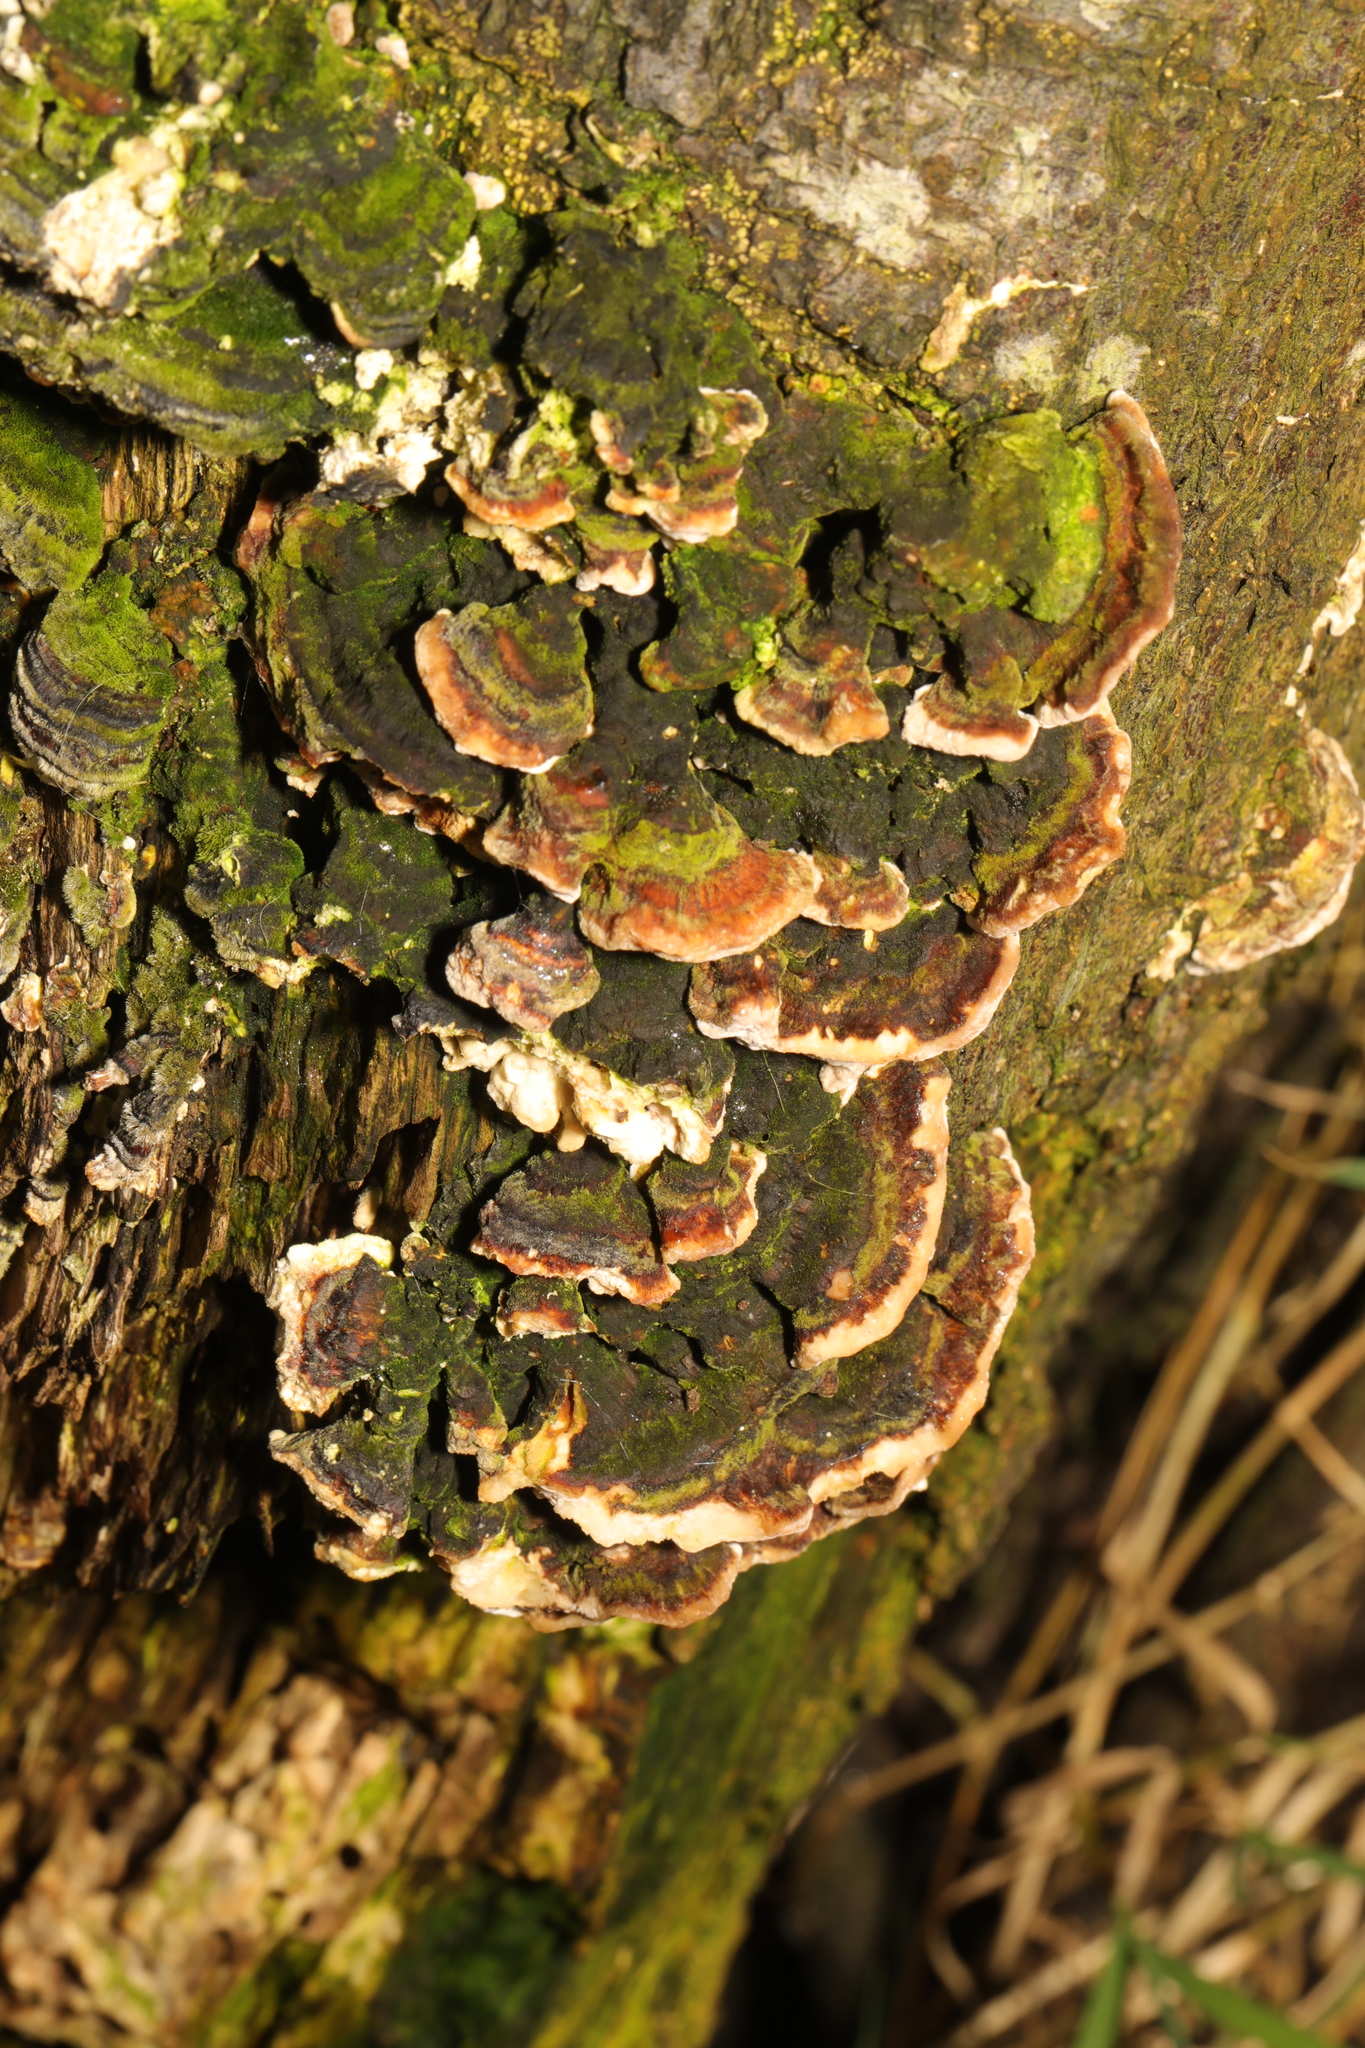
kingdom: Fungi
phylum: Basidiomycota
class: Agaricomycetes
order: Polyporales
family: Polyporaceae
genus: Trametes
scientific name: Trametes versicolor
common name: Turkeytail
